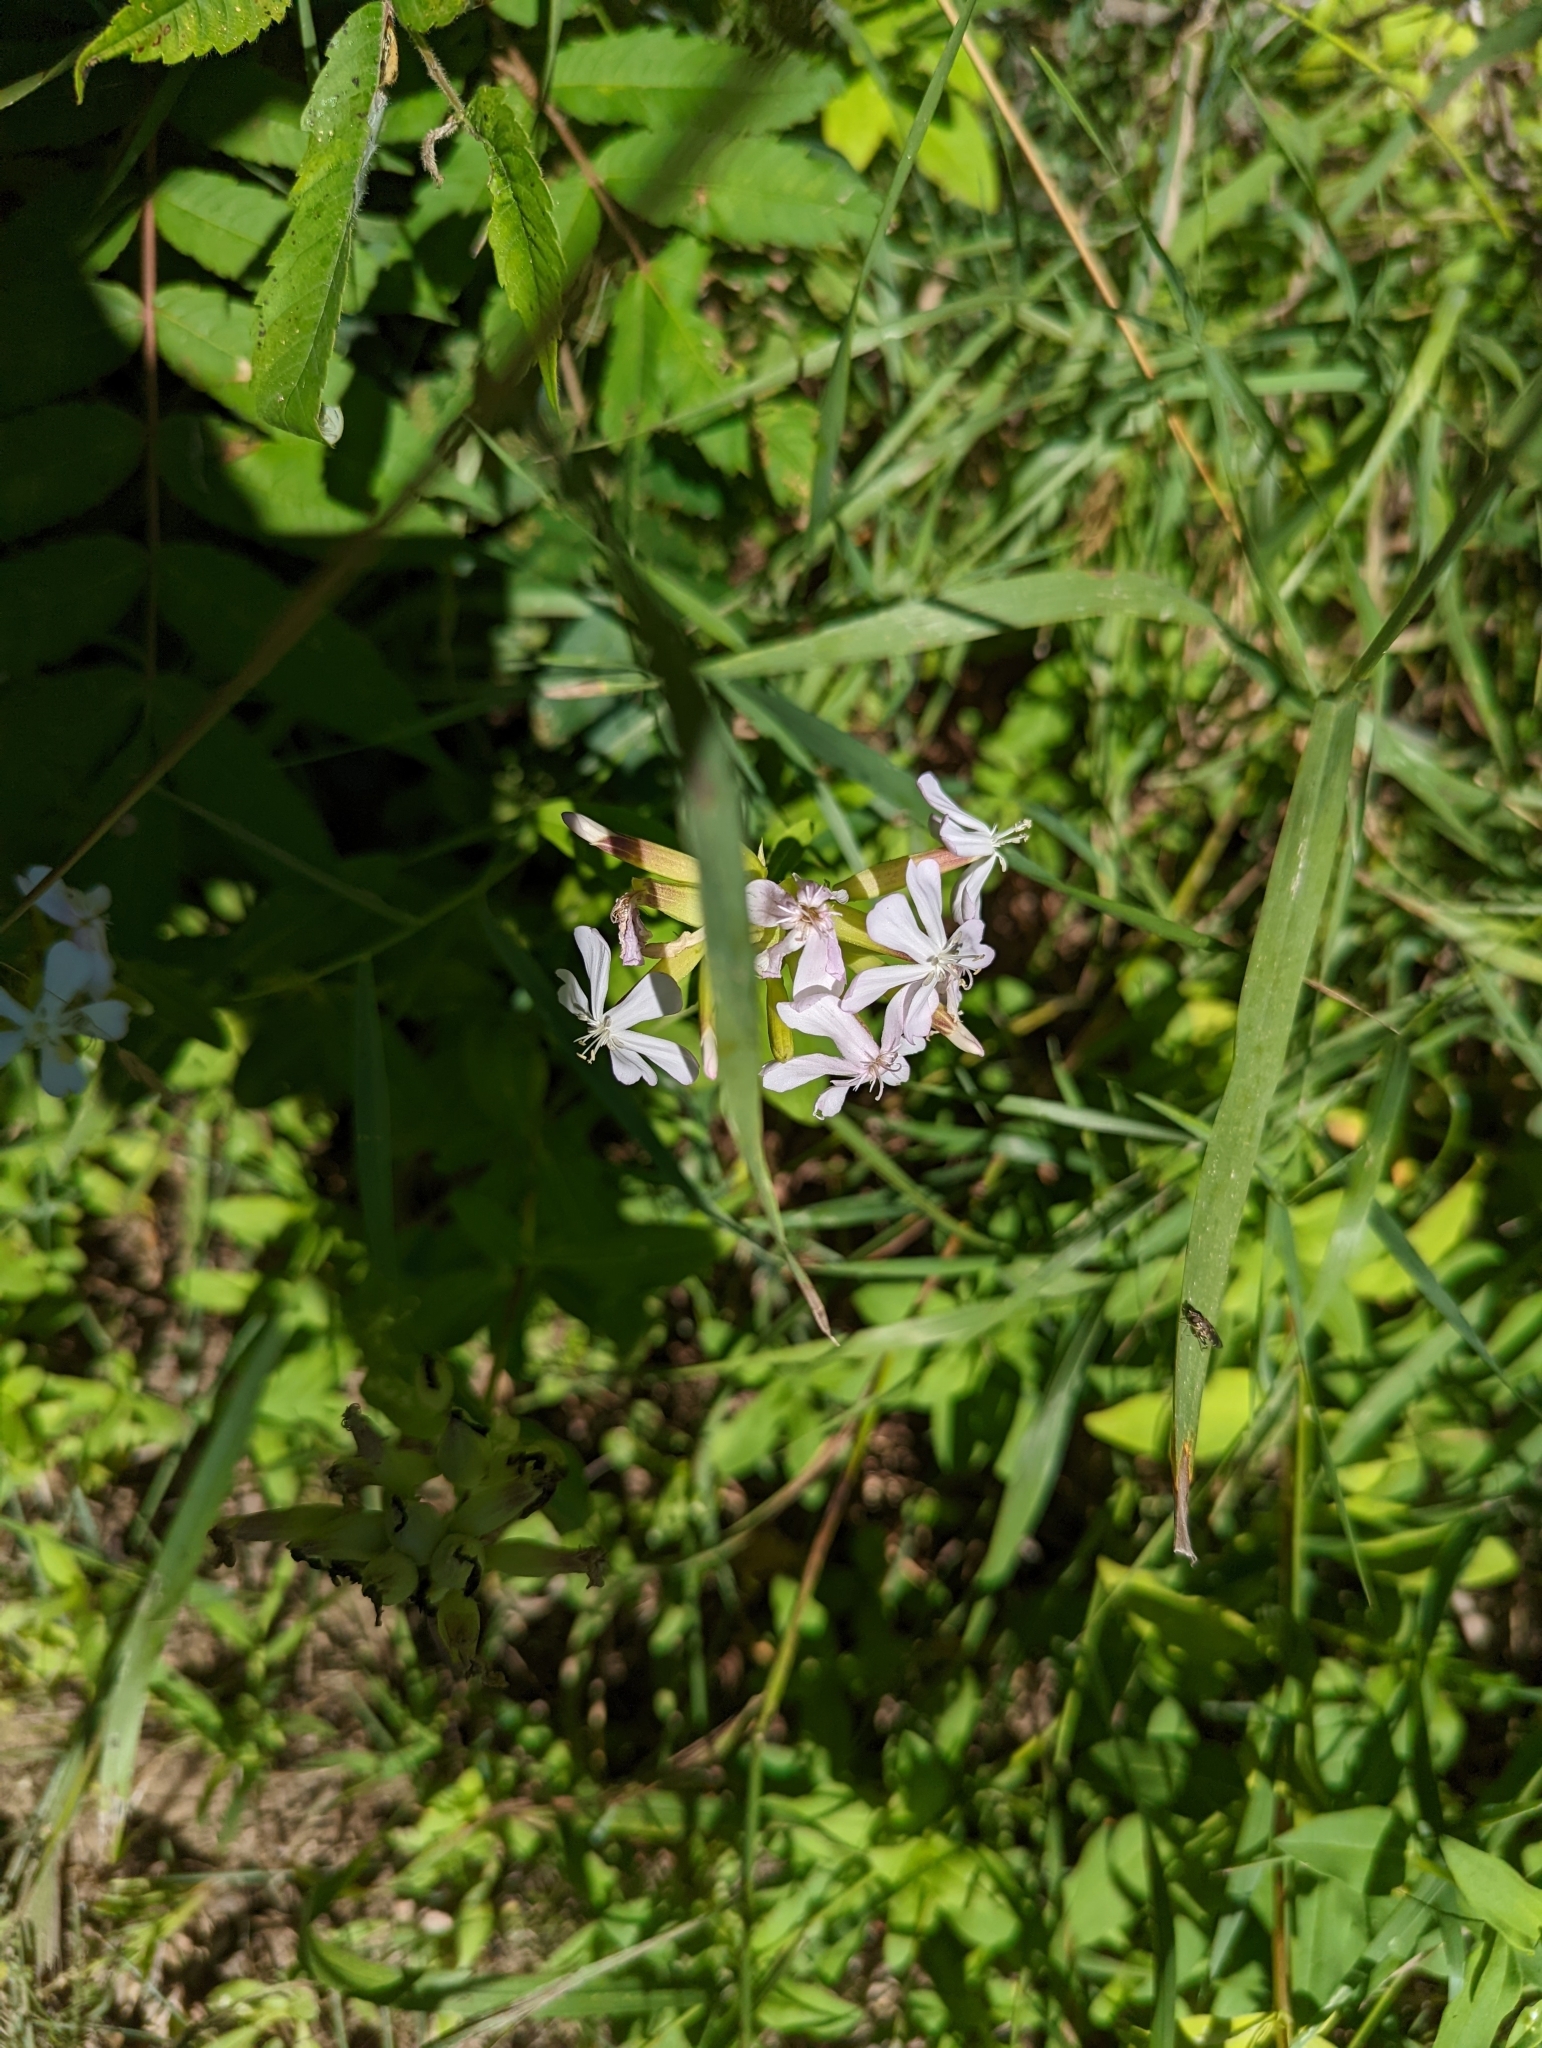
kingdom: Plantae
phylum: Tracheophyta
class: Magnoliopsida
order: Caryophyllales
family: Caryophyllaceae
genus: Saponaria
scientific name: Saponaria officinalis
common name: Soapwort
